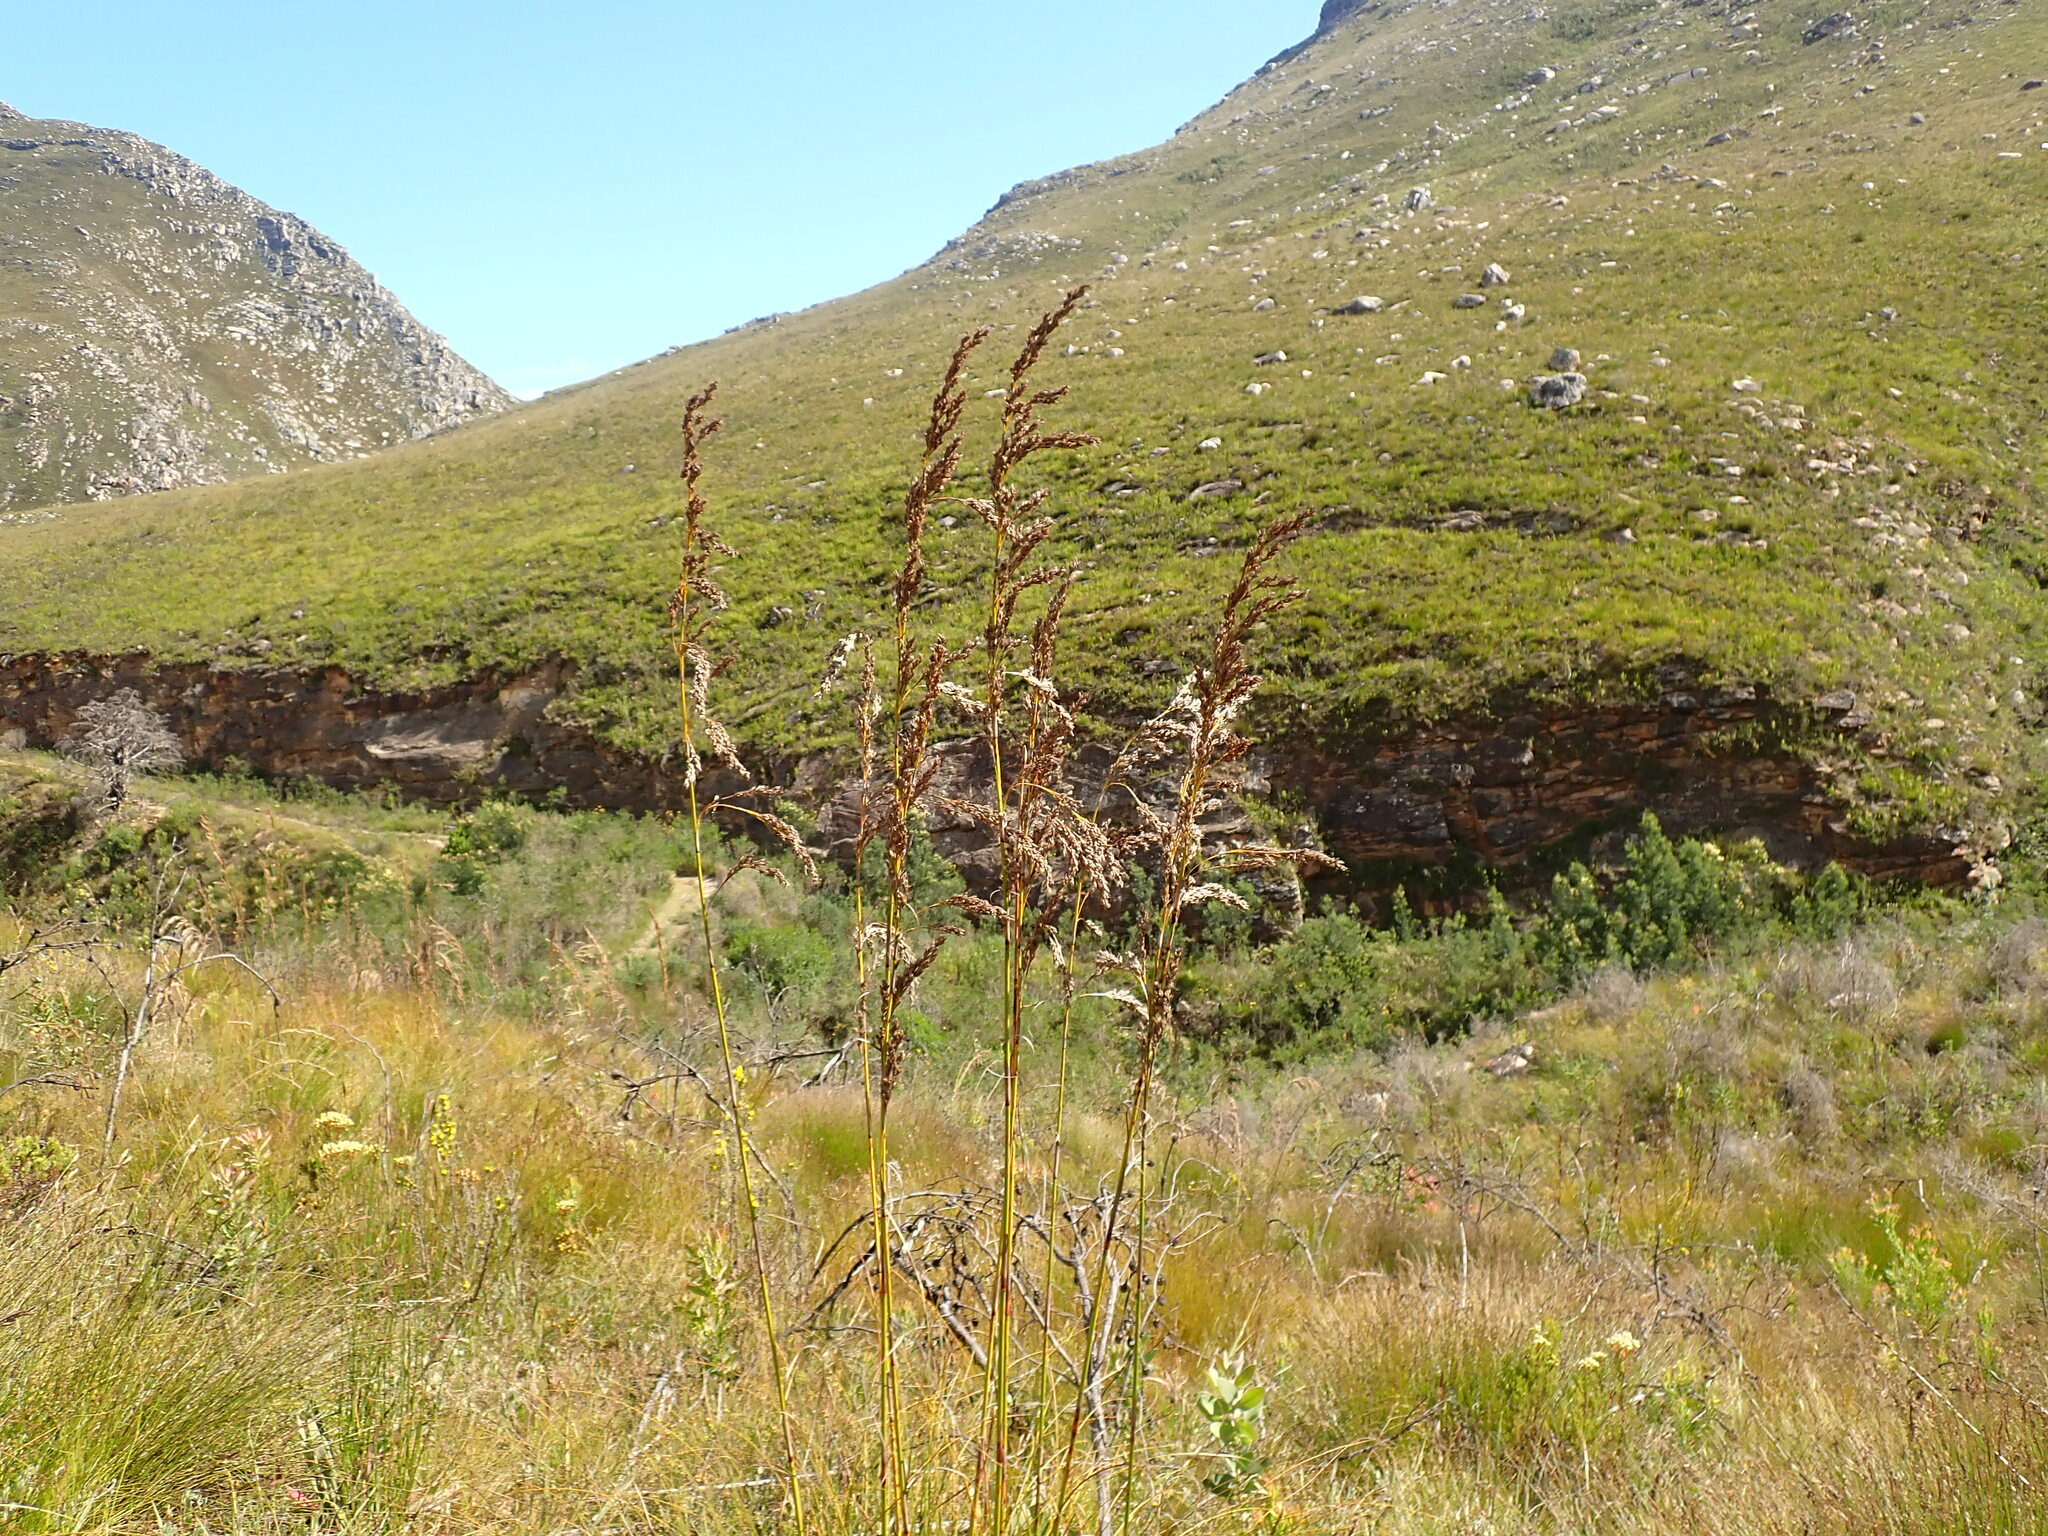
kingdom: Plantae
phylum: Tracheophyta
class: Liliopsida
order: Poales
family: Cyperaceae
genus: Tetraria
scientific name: Tetraria involucrata
